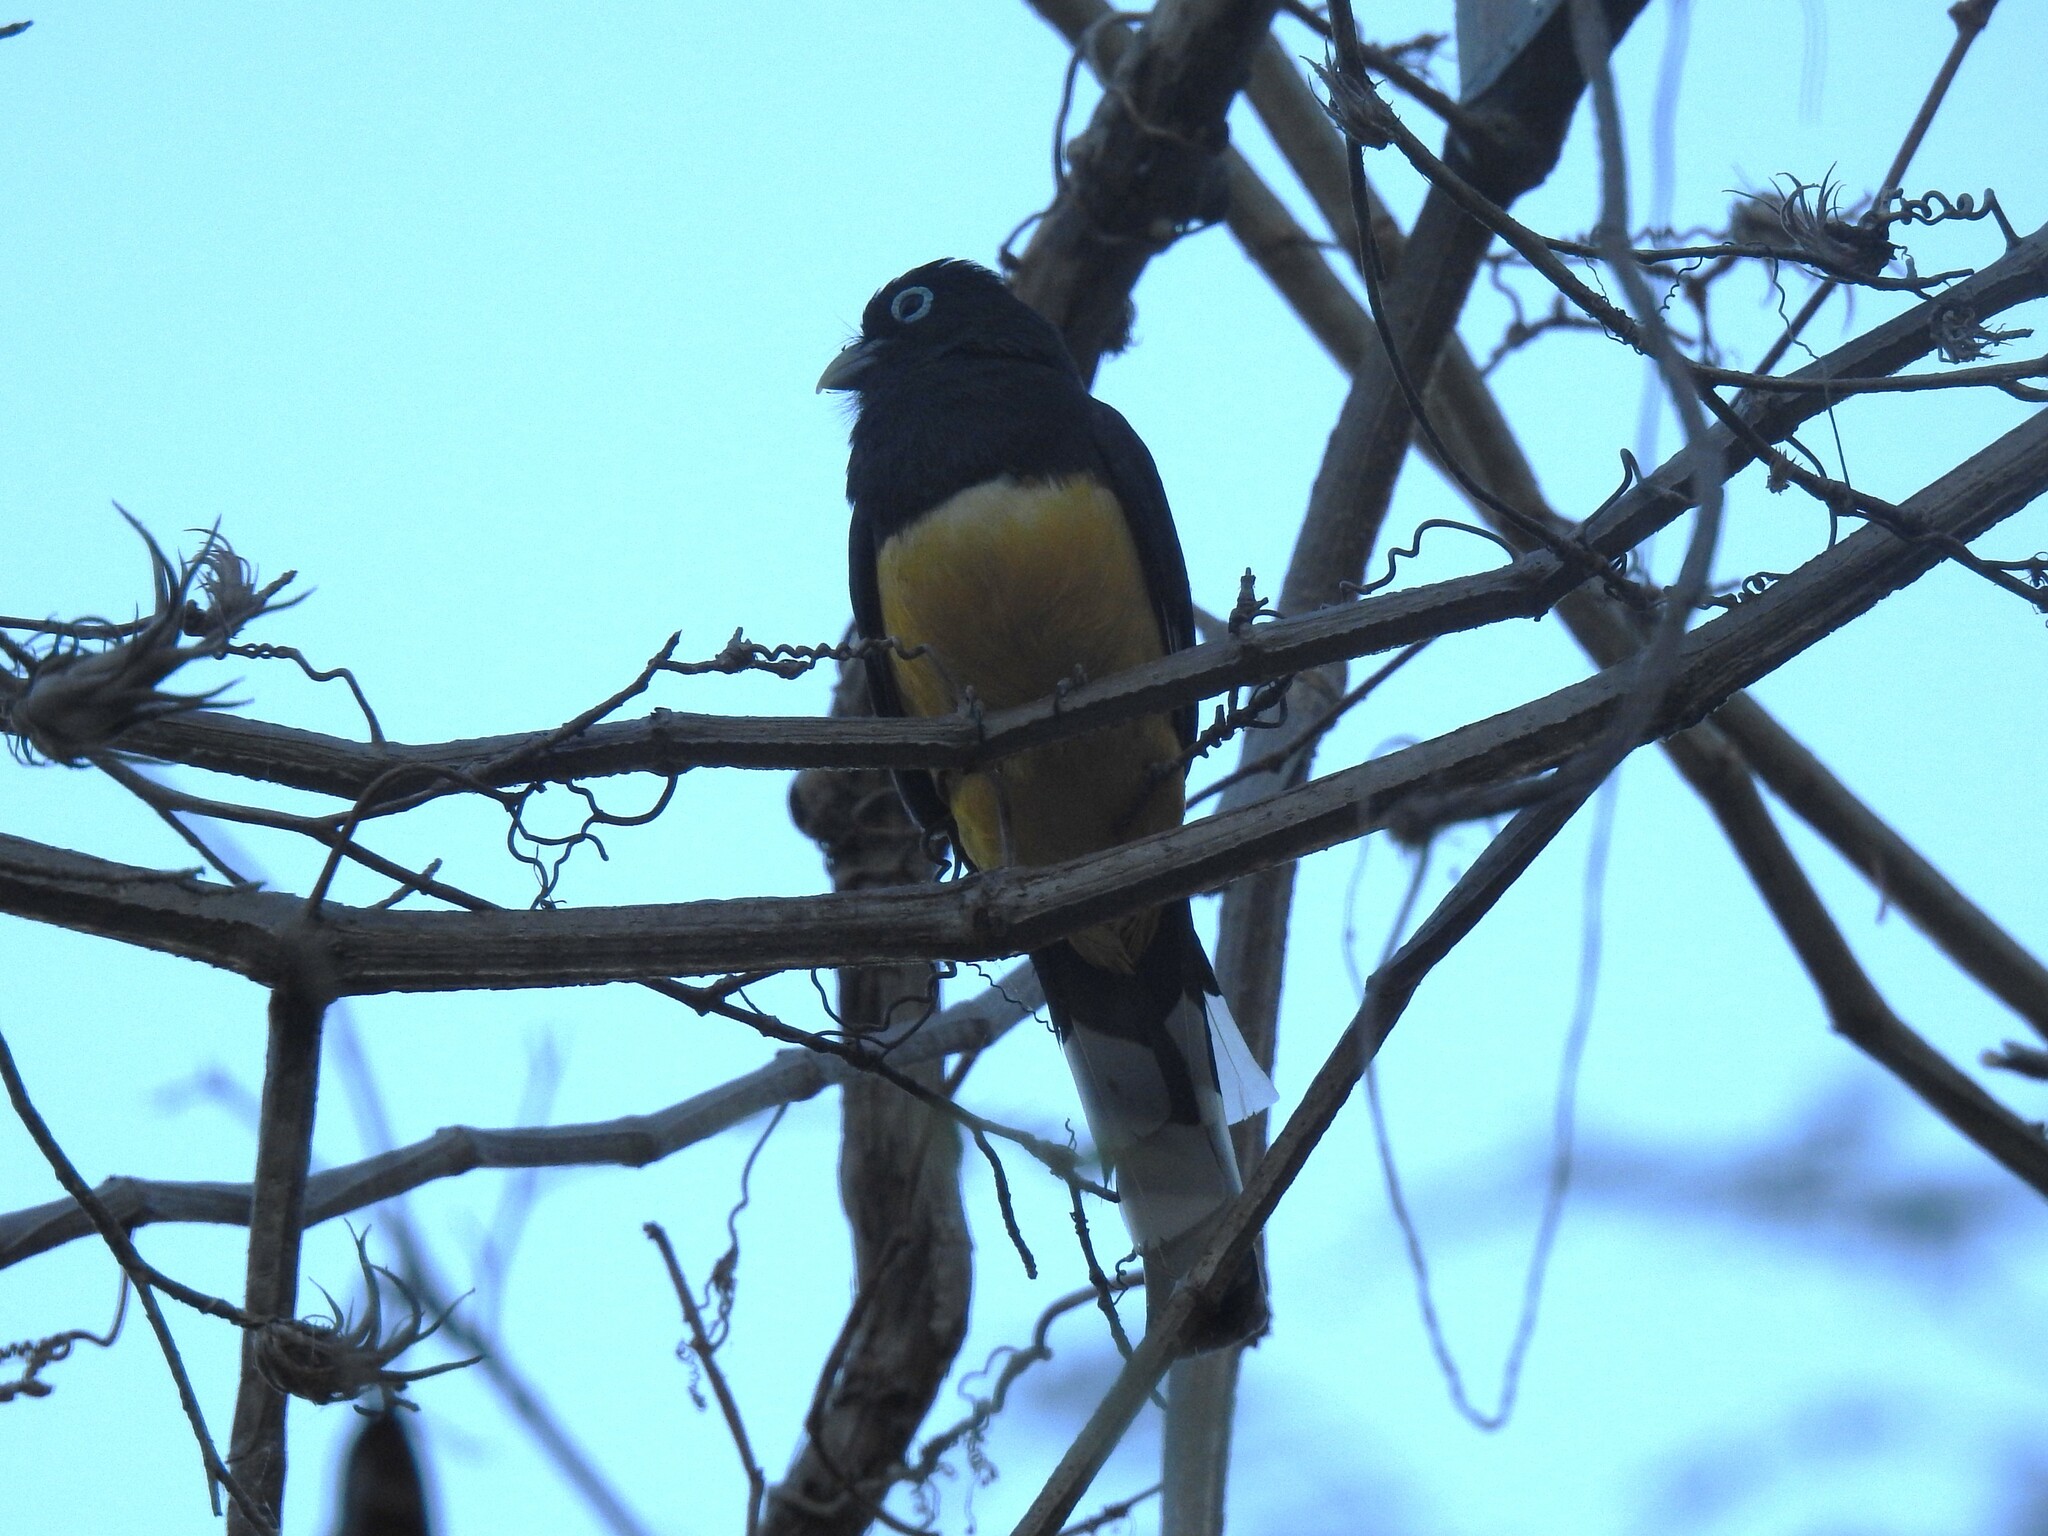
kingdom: Animalia
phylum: Chordata
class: Aves
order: Trogoniformes
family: Trogonidae
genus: Trogon
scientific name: Trogon melanocephalus
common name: Black-headed trogon
